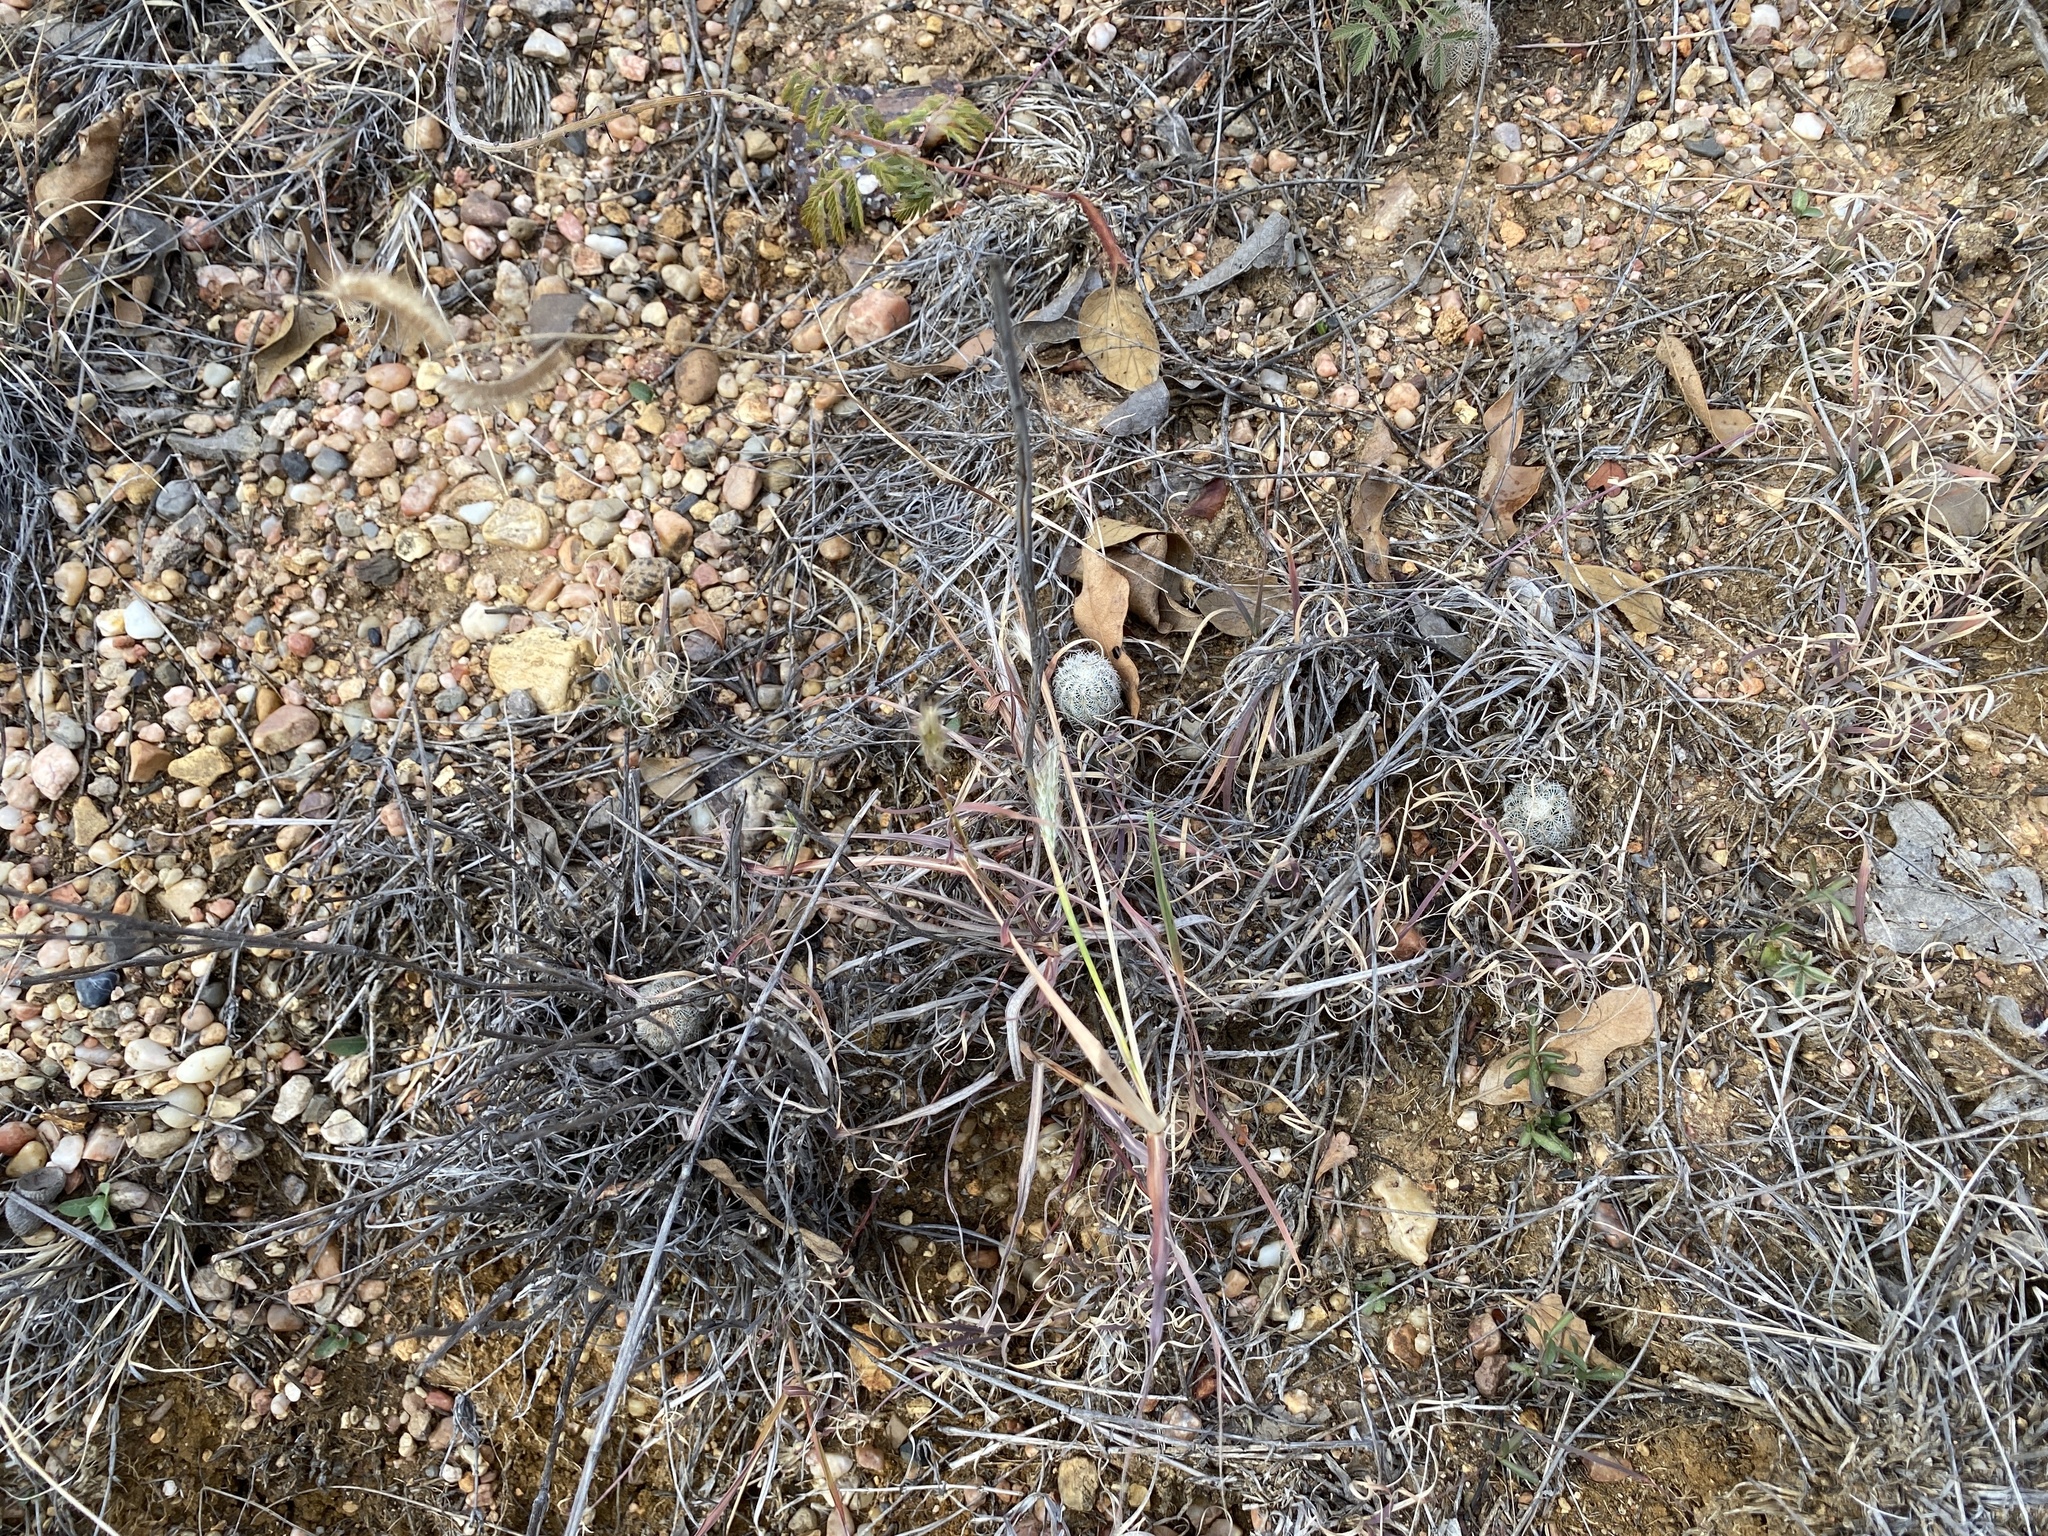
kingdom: Plantae
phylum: Tracheophyta
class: Magnoliopsida
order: Caryophyllales
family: Cactaceae
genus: Echinocereus
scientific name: Echinocereus reichenbachii
